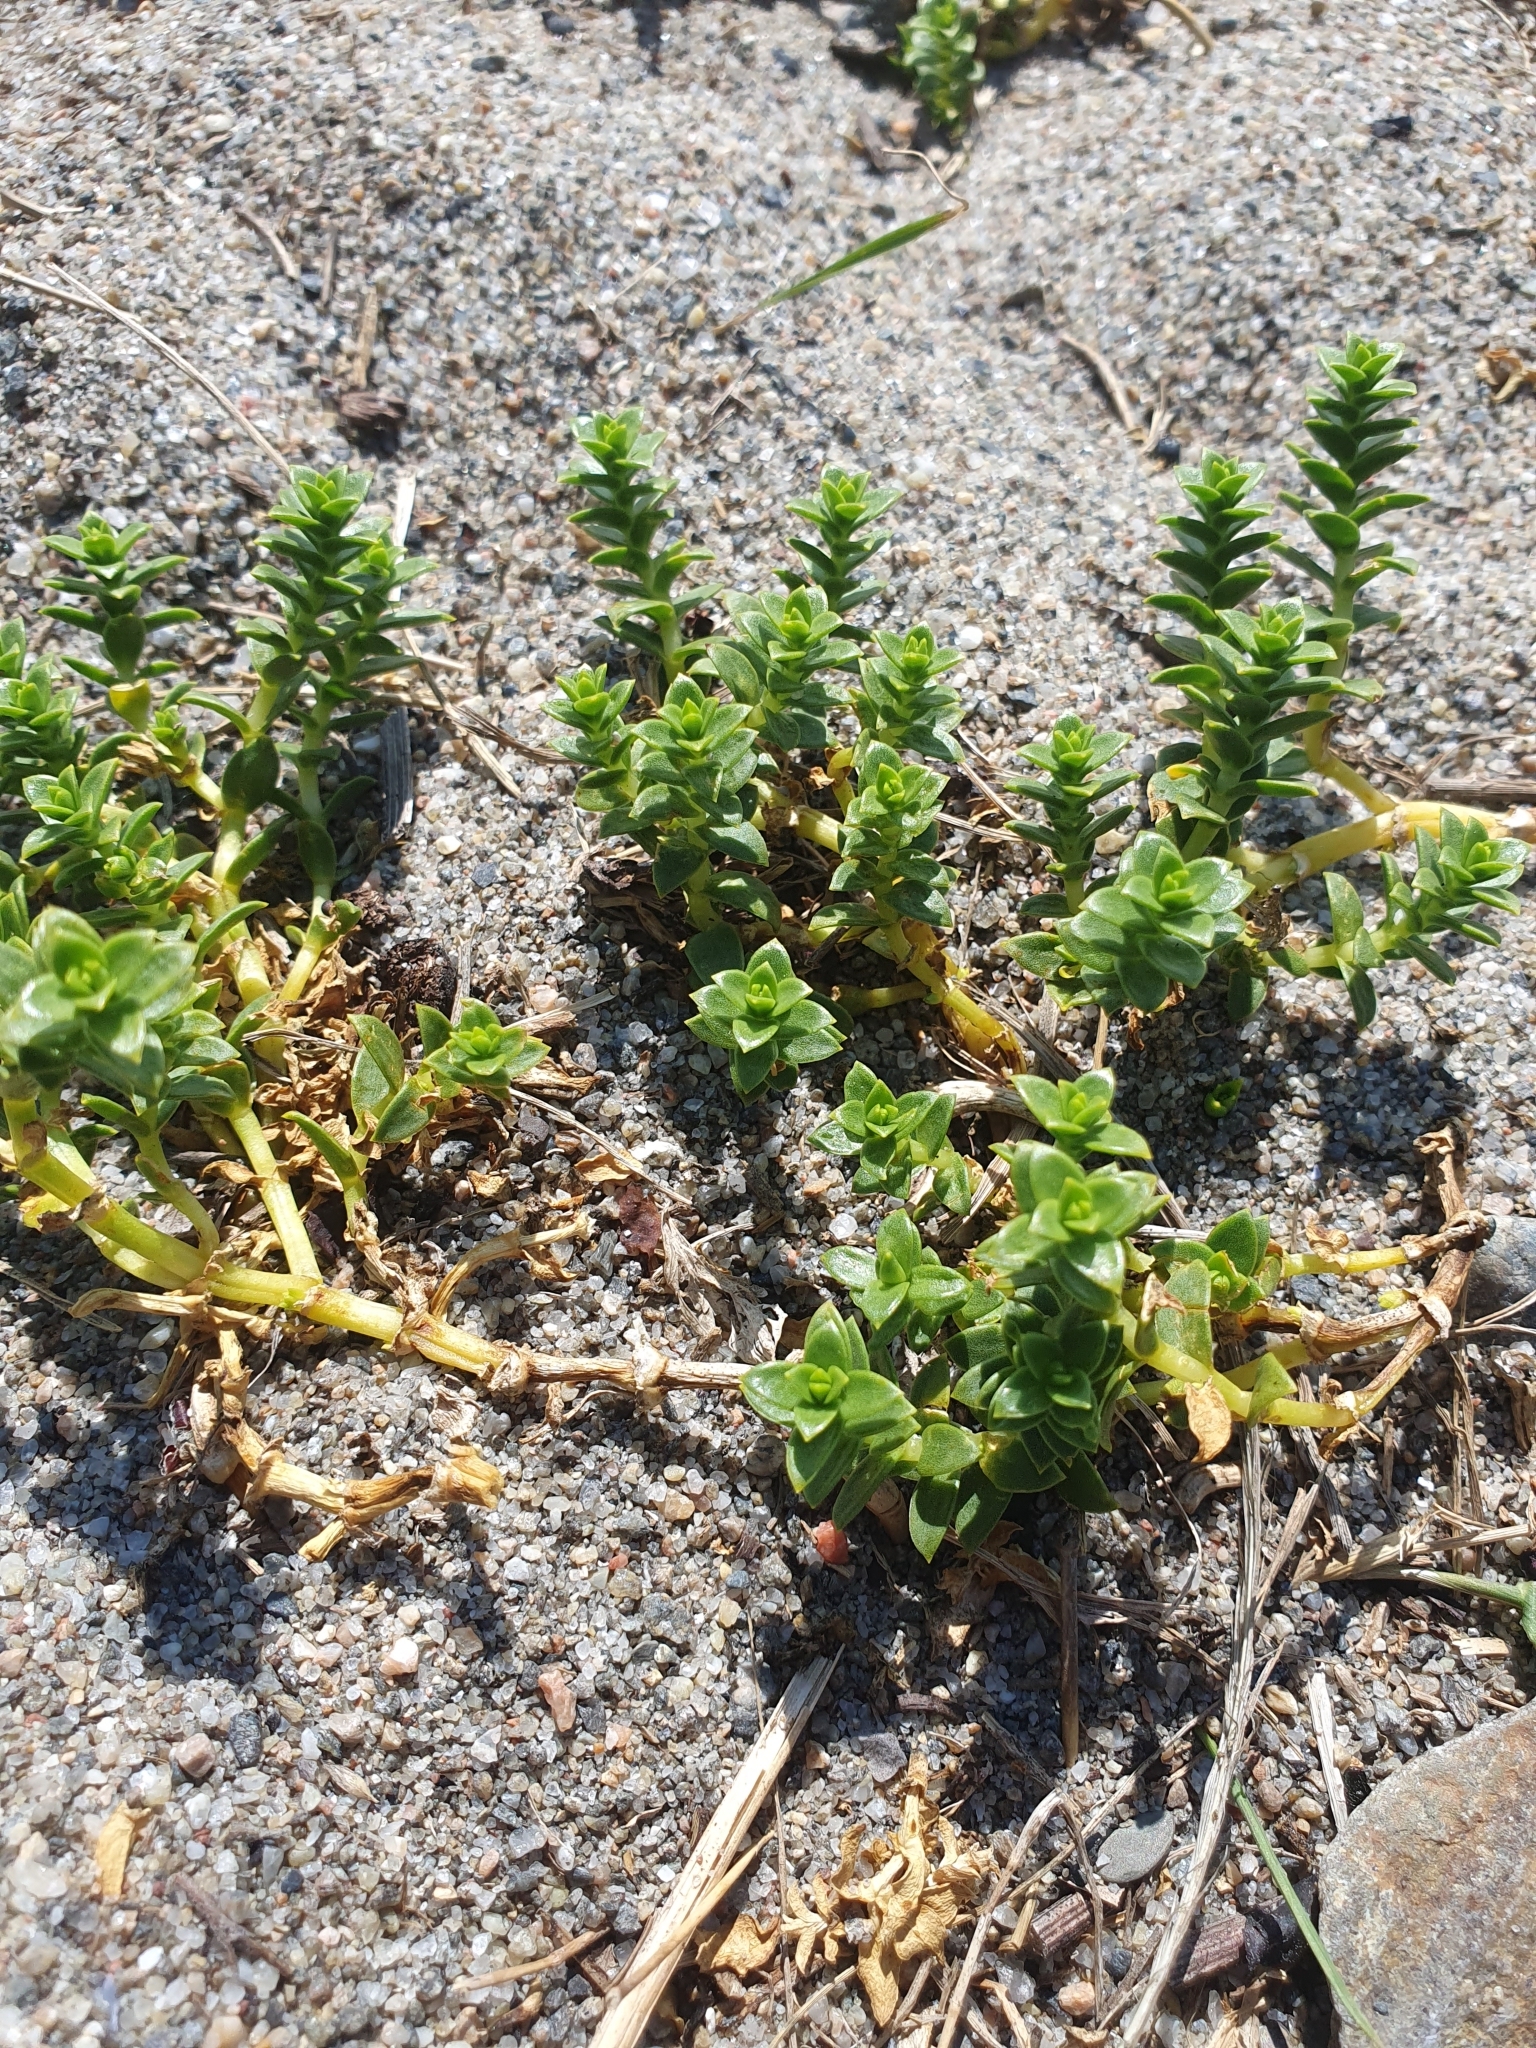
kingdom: Plantae
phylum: Tracheophyta
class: Magnoliopsida
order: Caryophyllales
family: Caryophyllaceae
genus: Honckenya
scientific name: Honckenya peploides
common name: Sea sandwort
